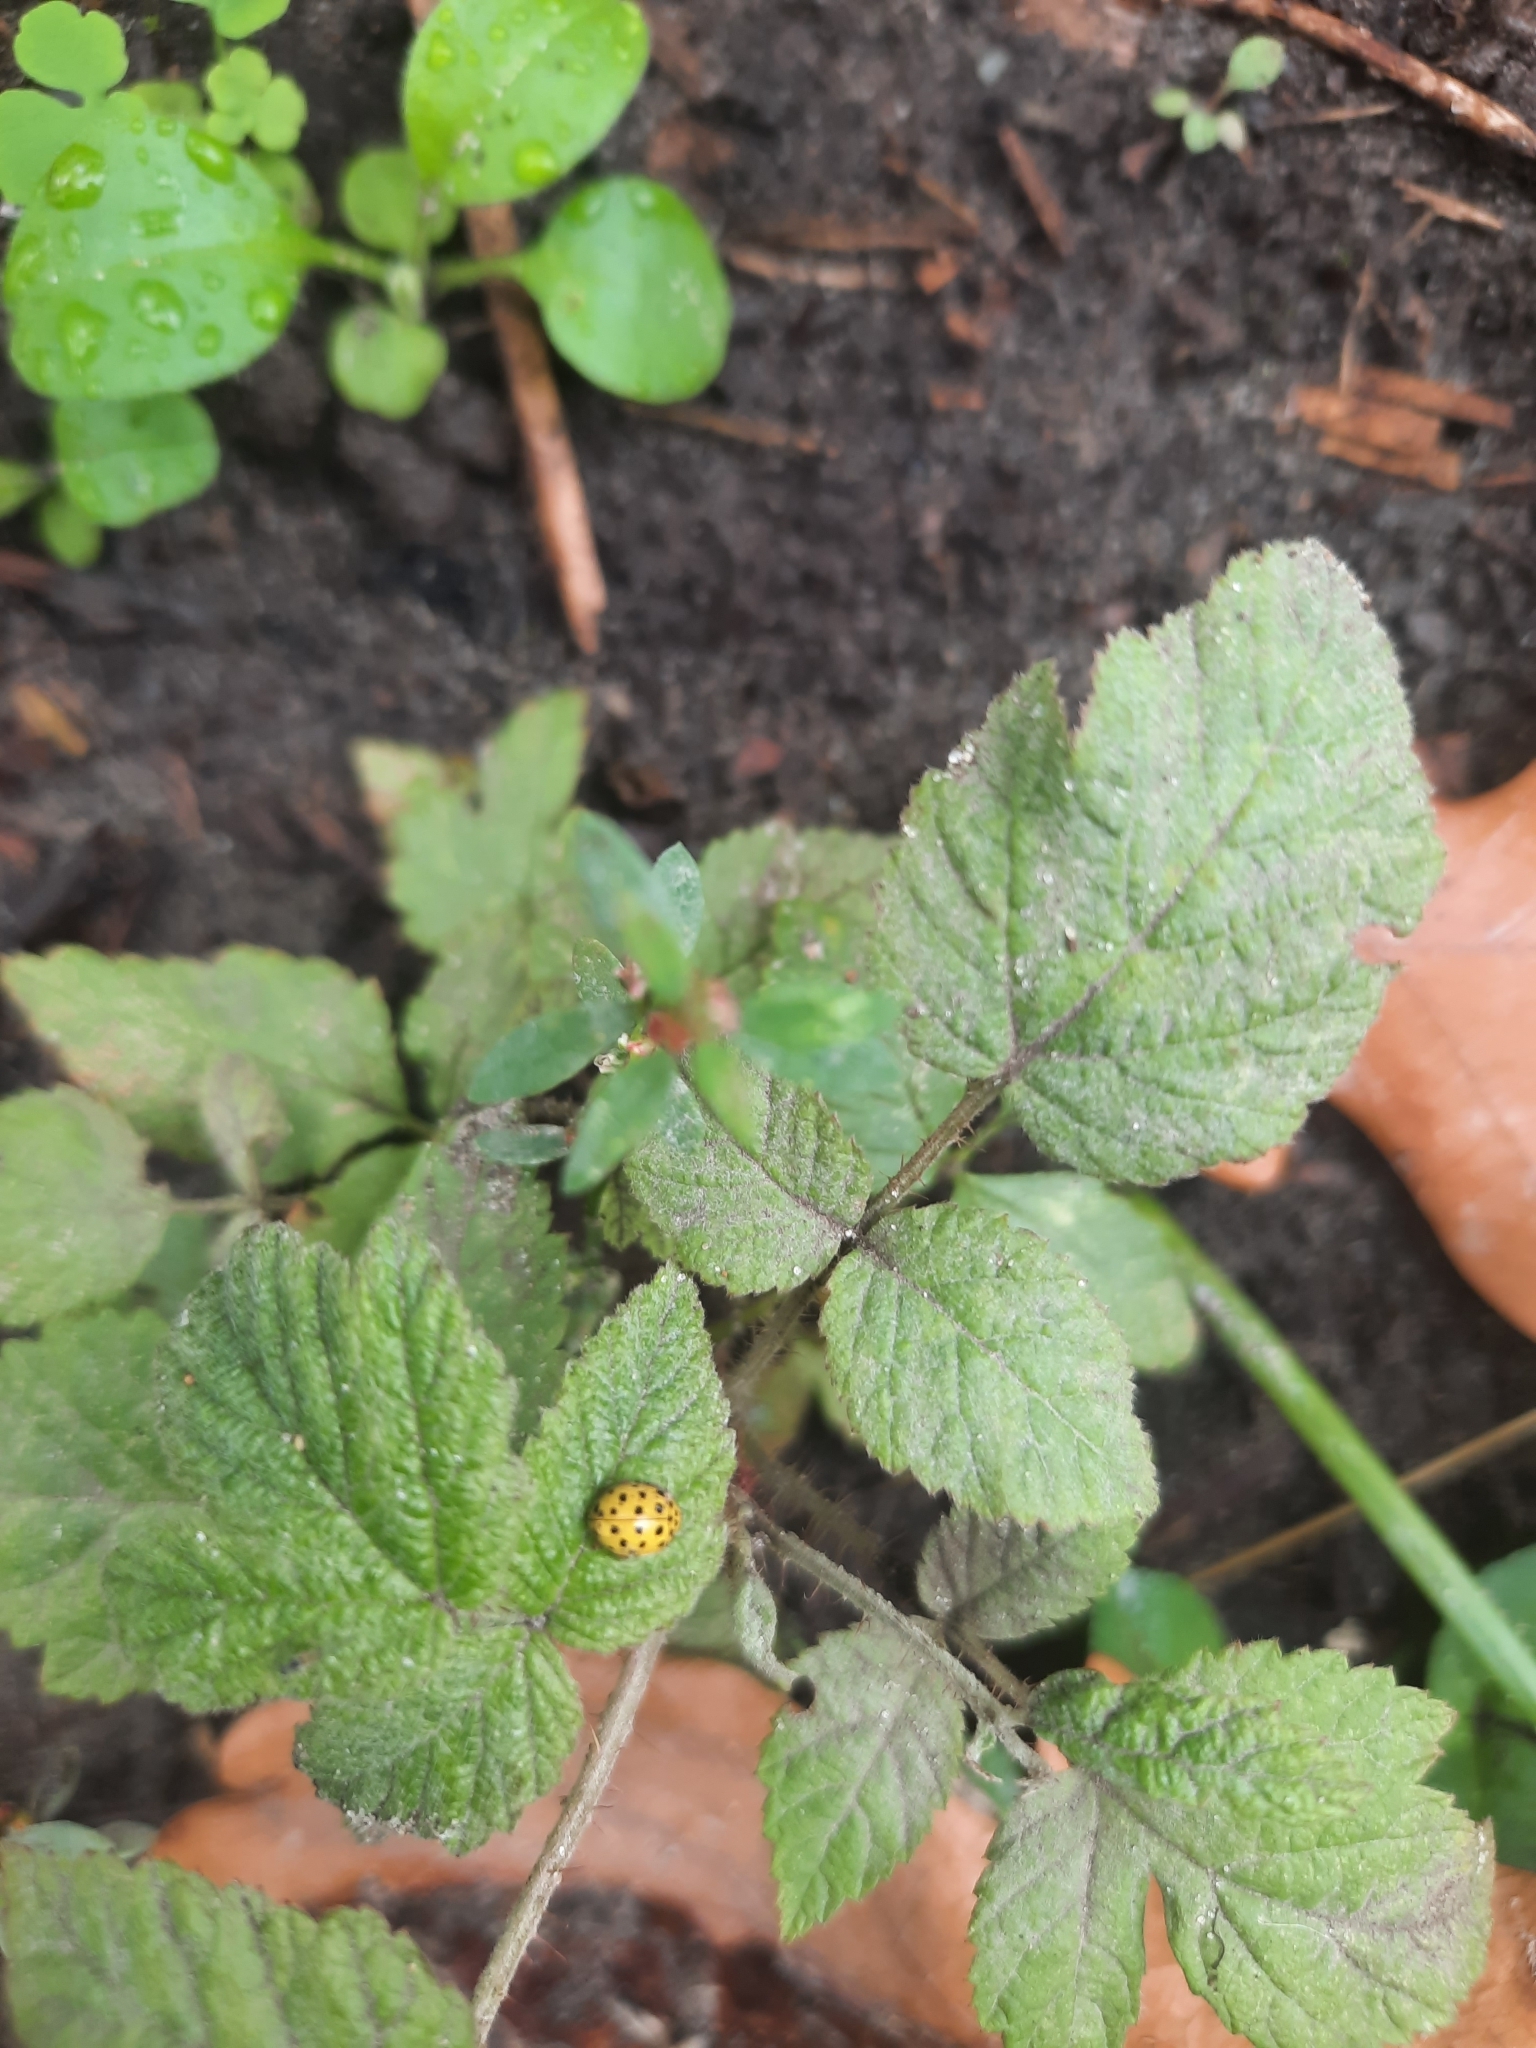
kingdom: Animalia
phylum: Arthropoda
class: Insecta
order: Coleoptera
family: Coccinellidae
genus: Psyllobora
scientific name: Psyllobora vigintiduopunctata
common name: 22-spot ladybird
